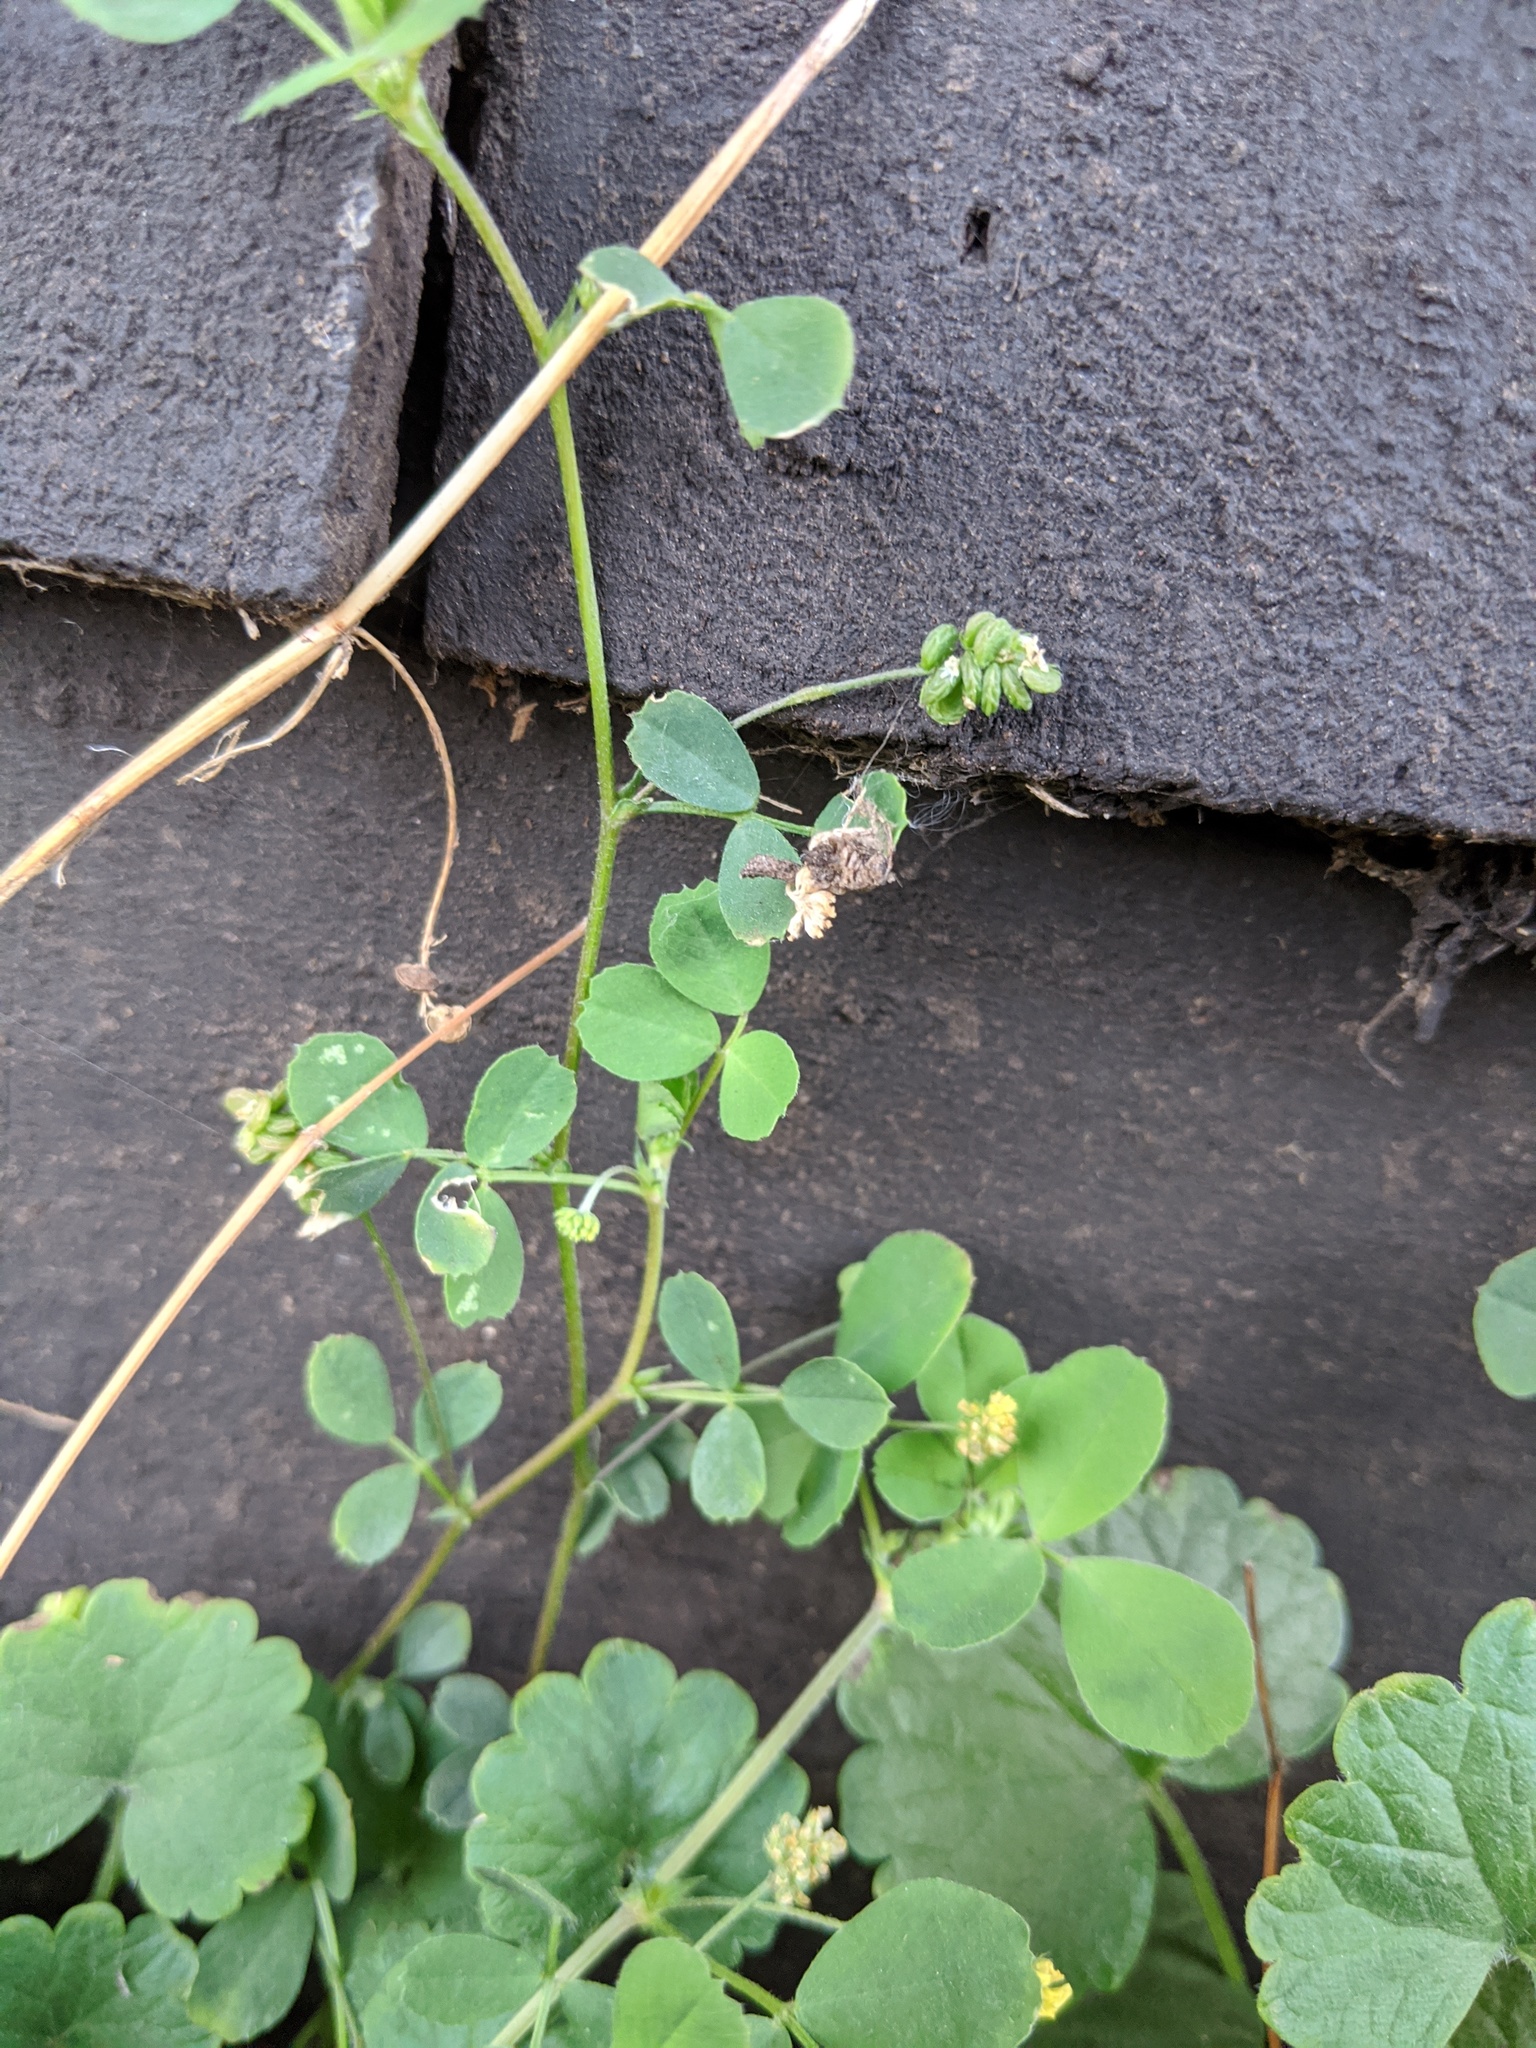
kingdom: Plantae
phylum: Tracheophyta
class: Magnoliopsida
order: Fabales
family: Fabaceae
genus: Medicago
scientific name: Medicago lupulina
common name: Black medick
